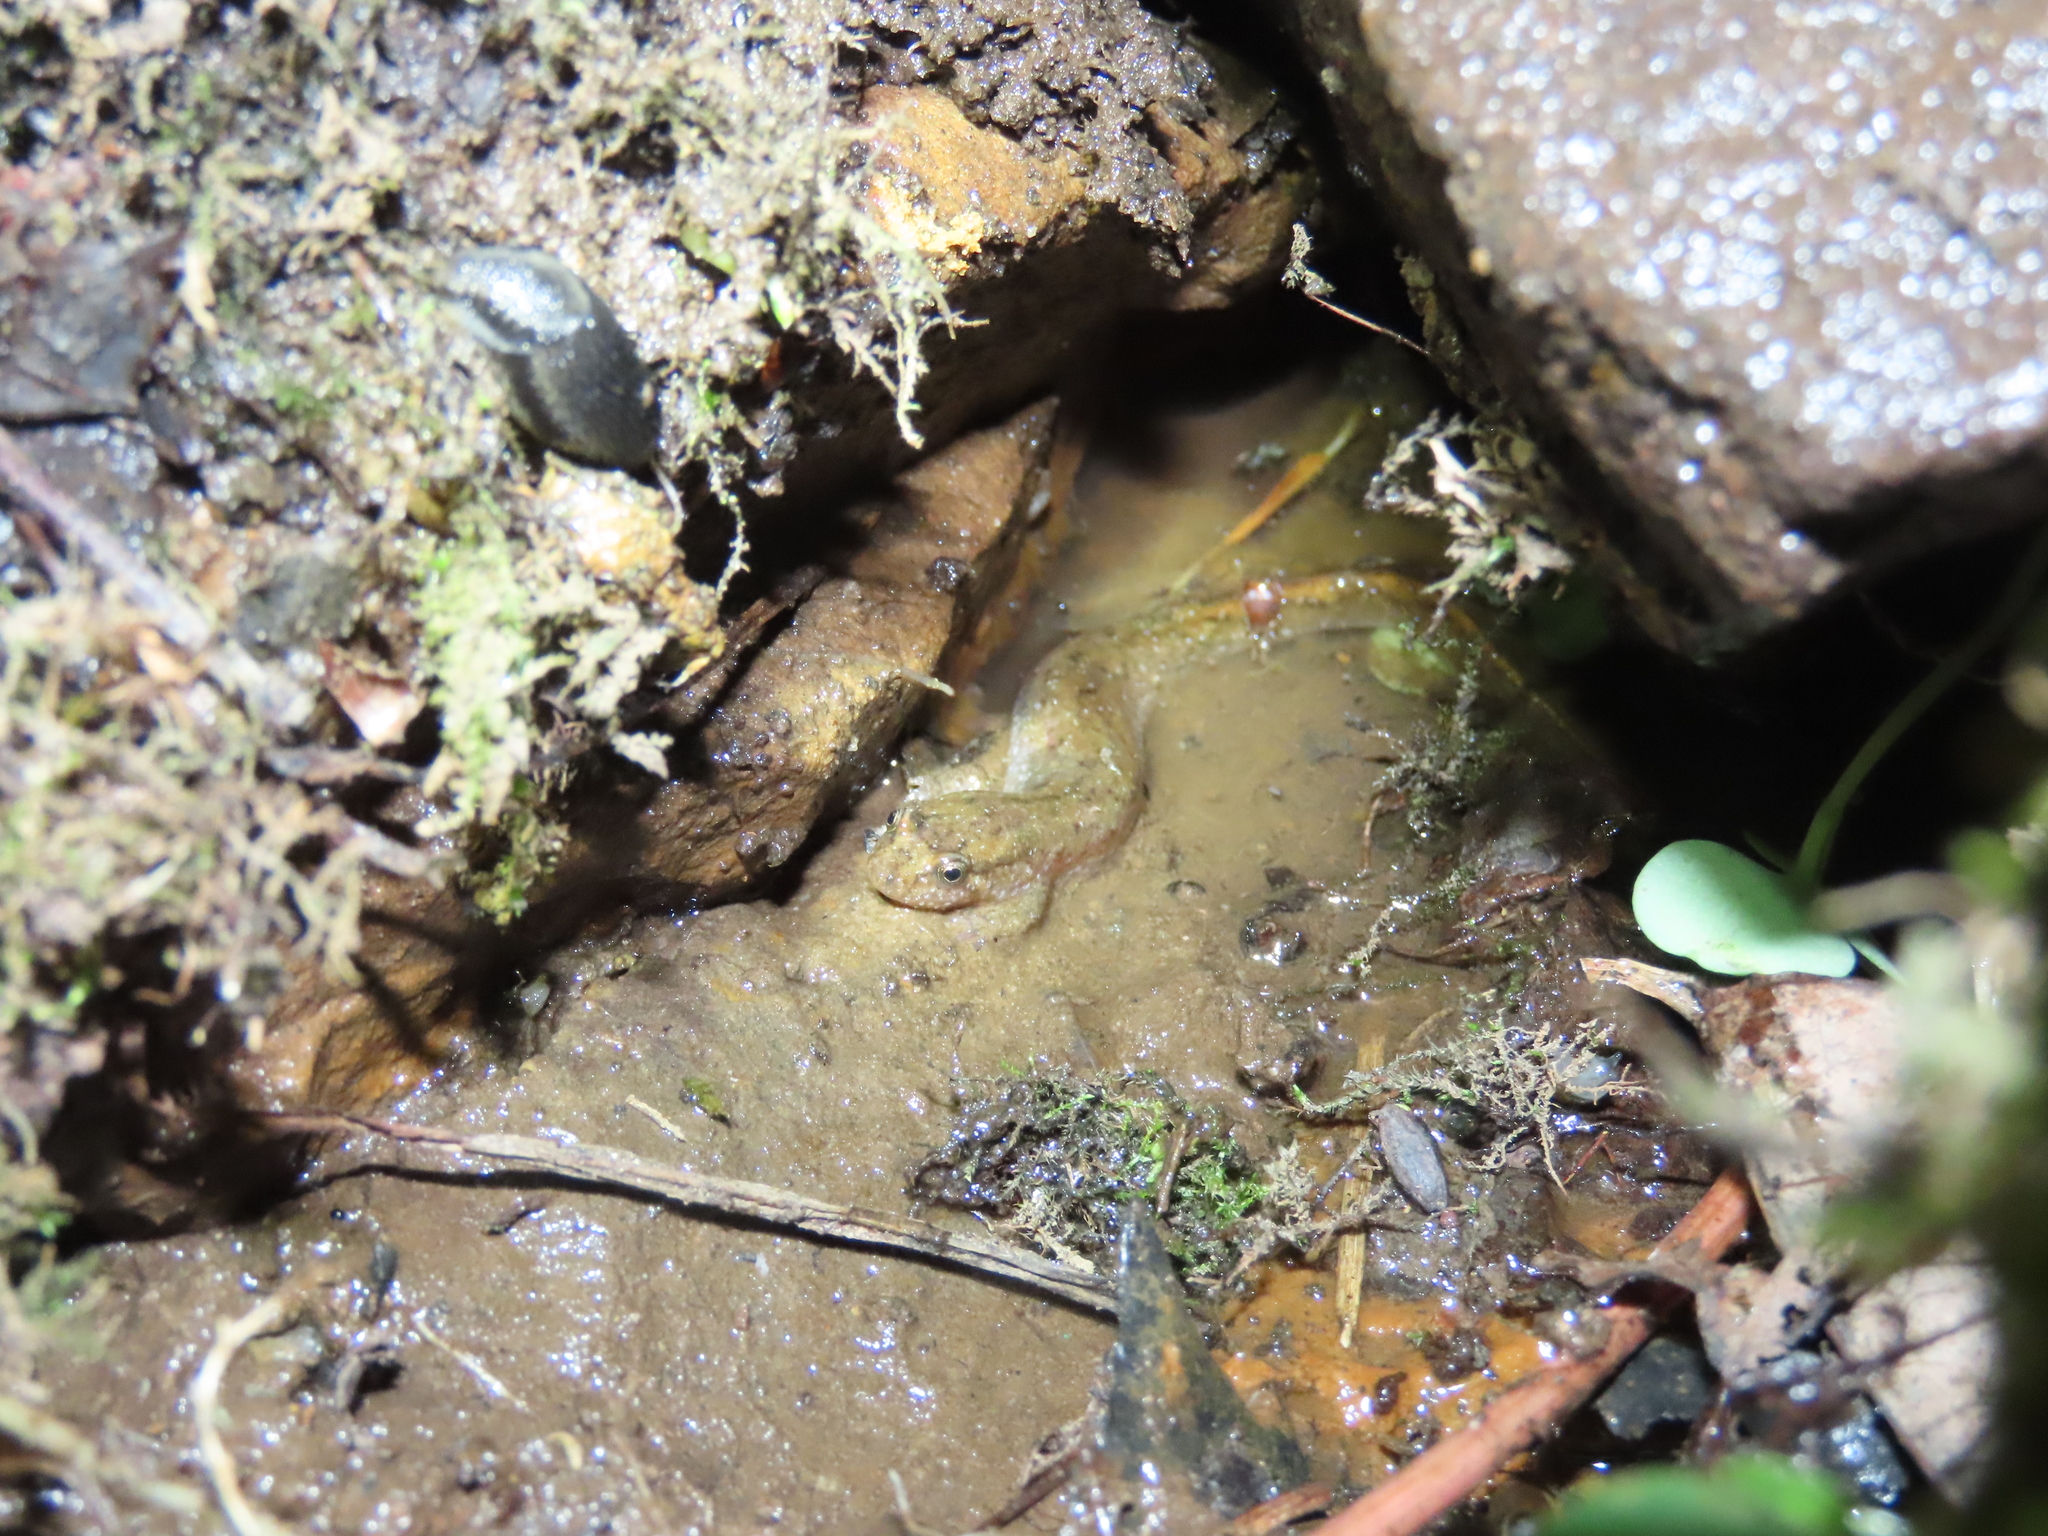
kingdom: Animalia
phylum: Chordata
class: Amphibia
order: Caudata
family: Plethodontidae
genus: Desmognathus
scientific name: Desmognathus fuscus
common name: Northern dusky salamander
